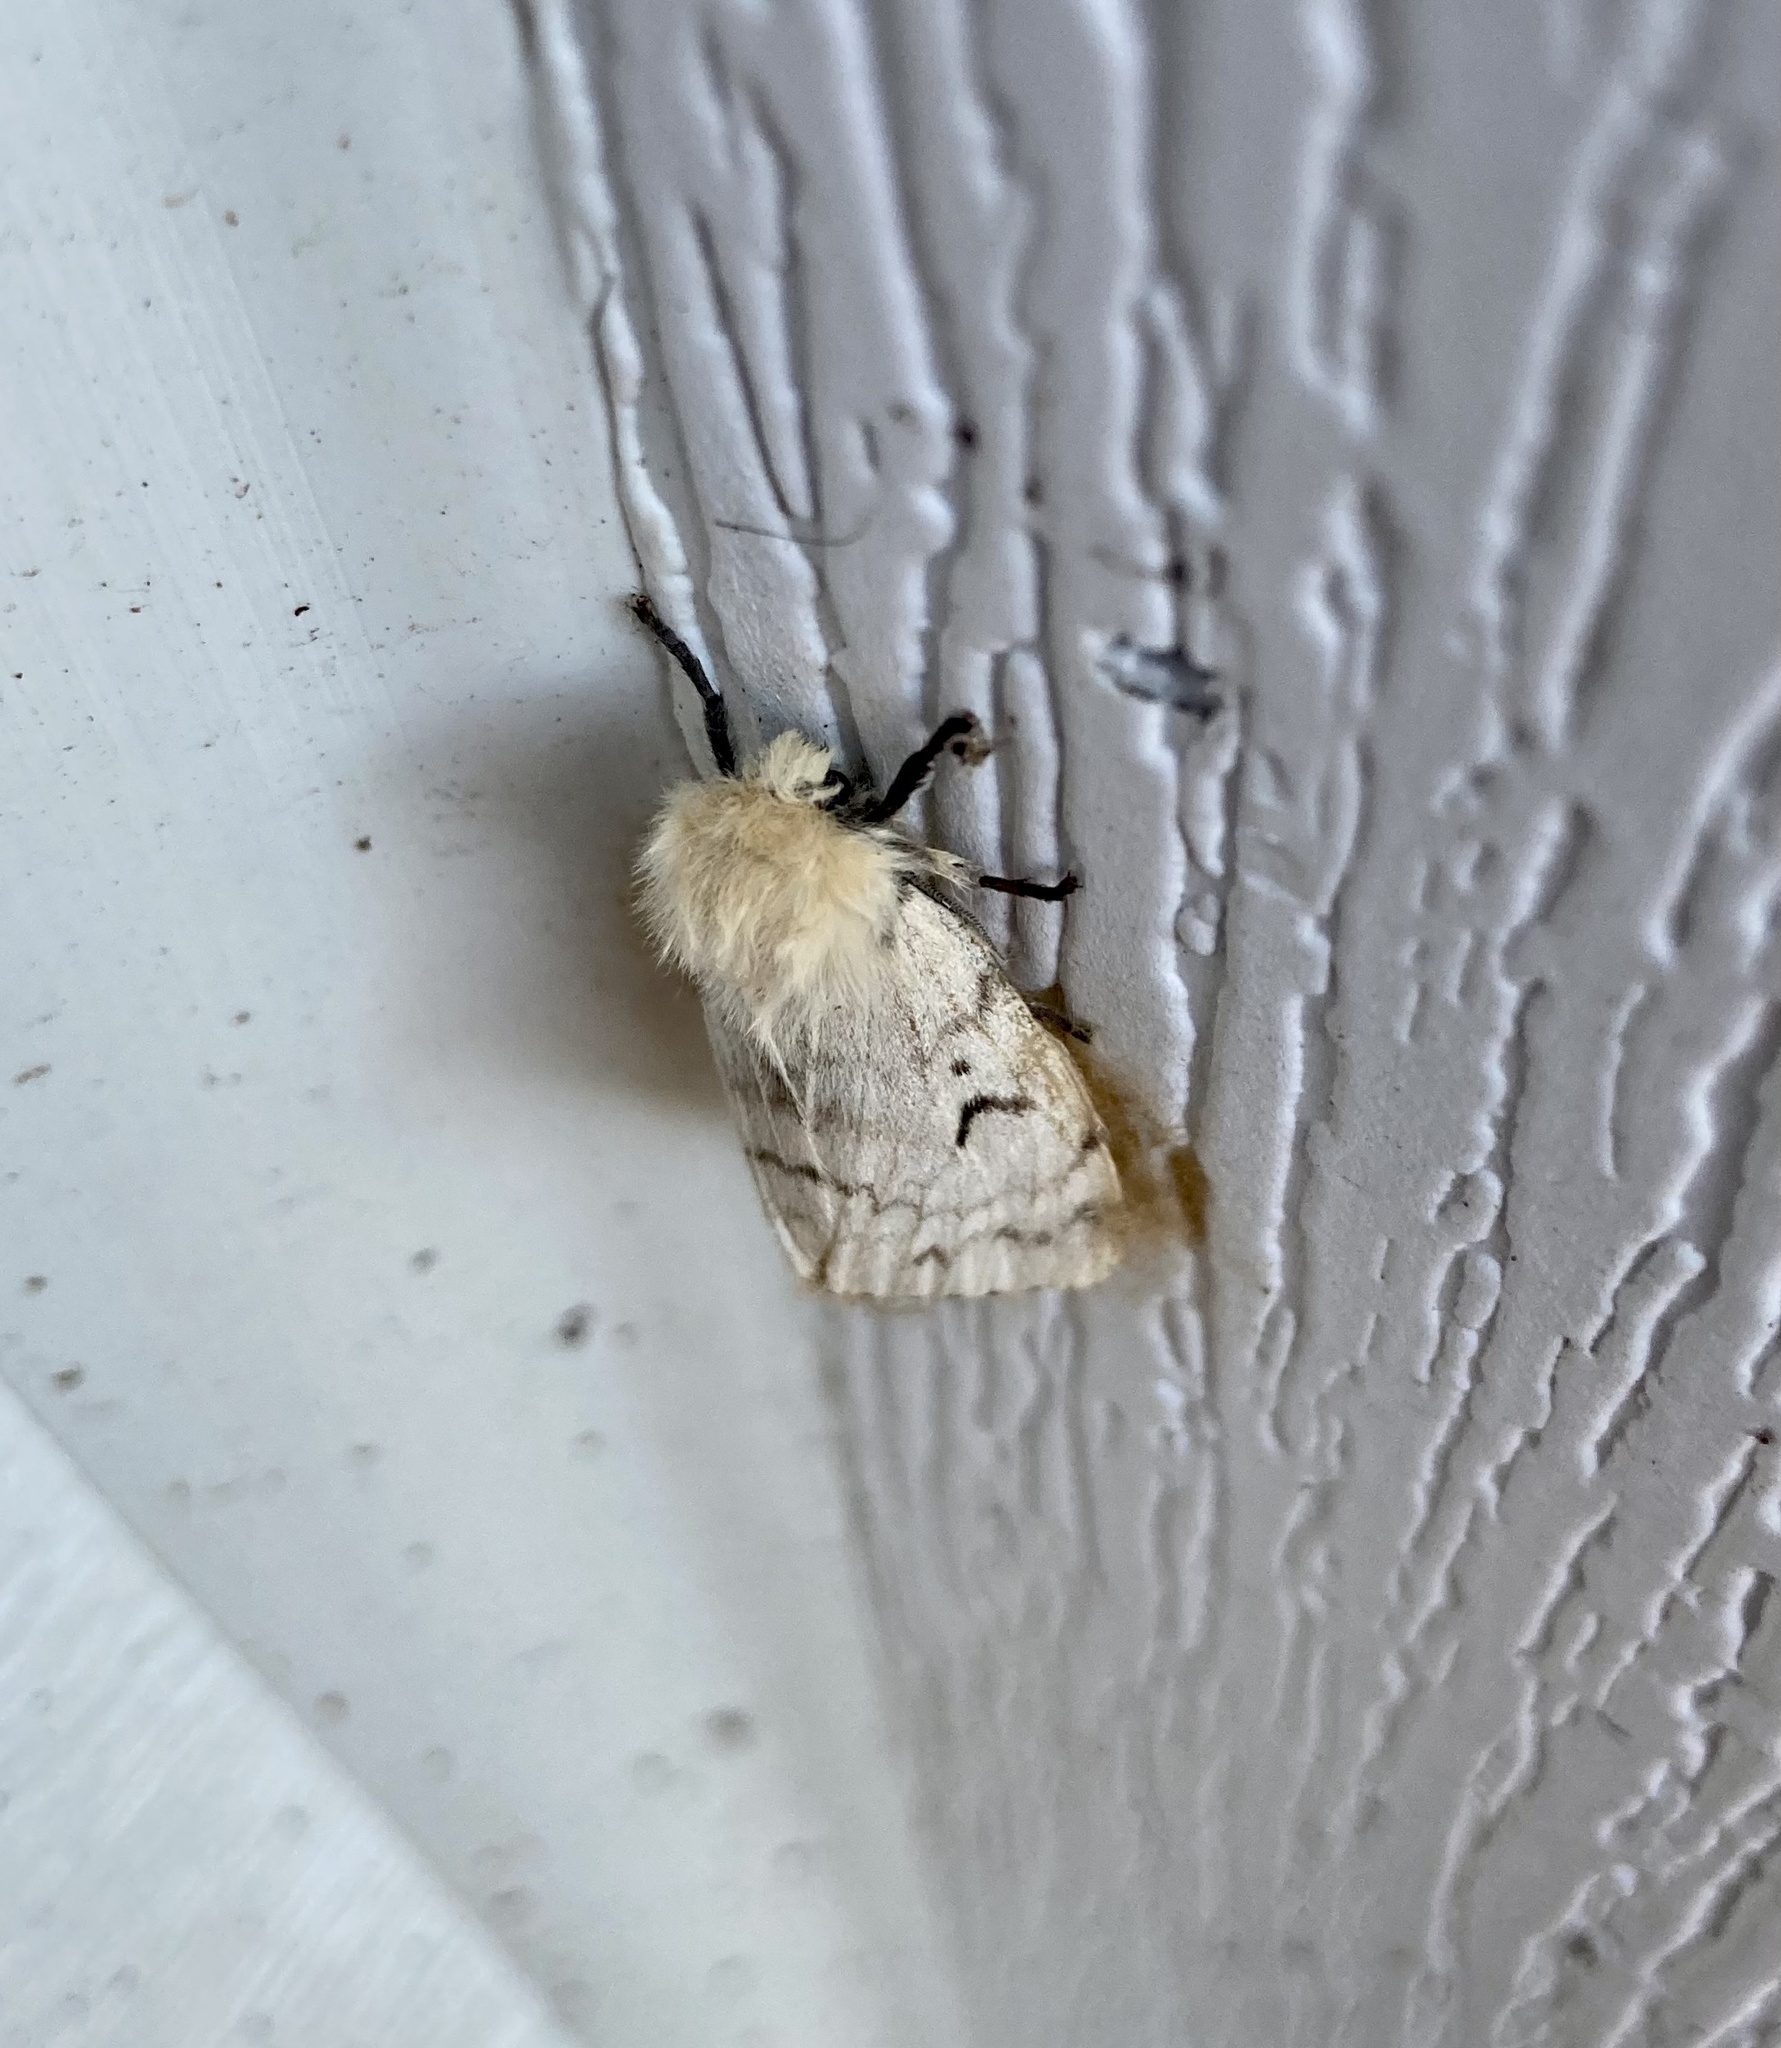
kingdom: Animalia
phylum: Arthropoda
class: Insecta
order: Lepidoptera
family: Erebidae
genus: Lymantria
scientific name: Lymantria dispar
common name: Gypsy moth
